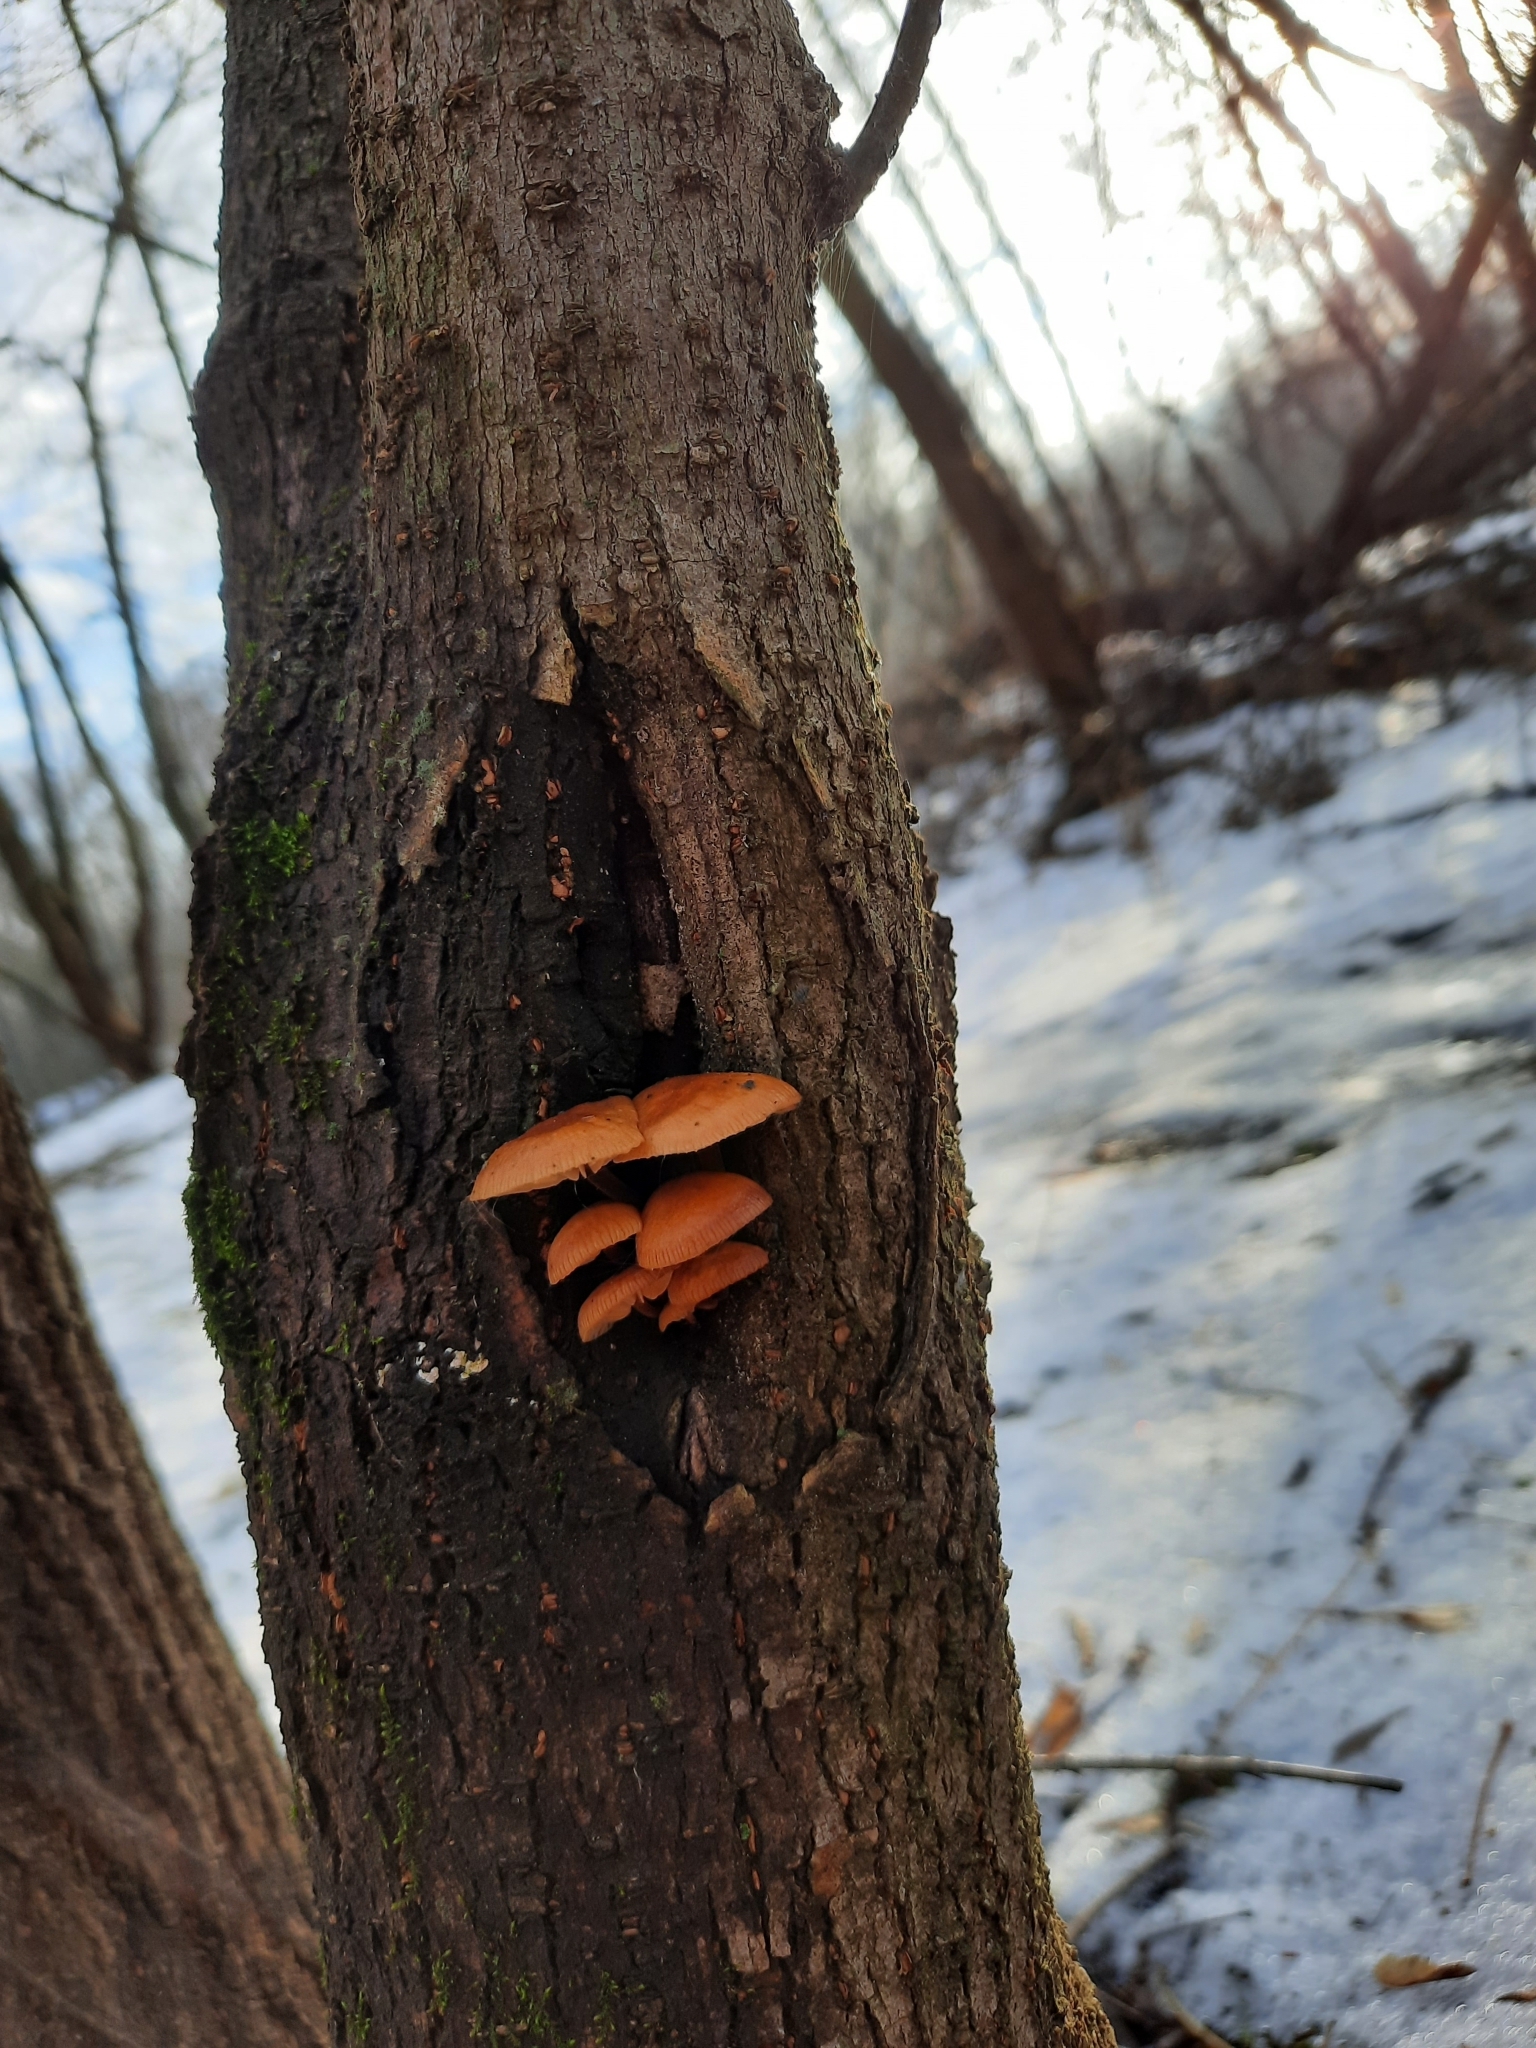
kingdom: Fungi
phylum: Basidiomycota
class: Agaricomycetes
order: Agaricales
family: Physalacriaceae
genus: Flammulina
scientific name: Flammulina
